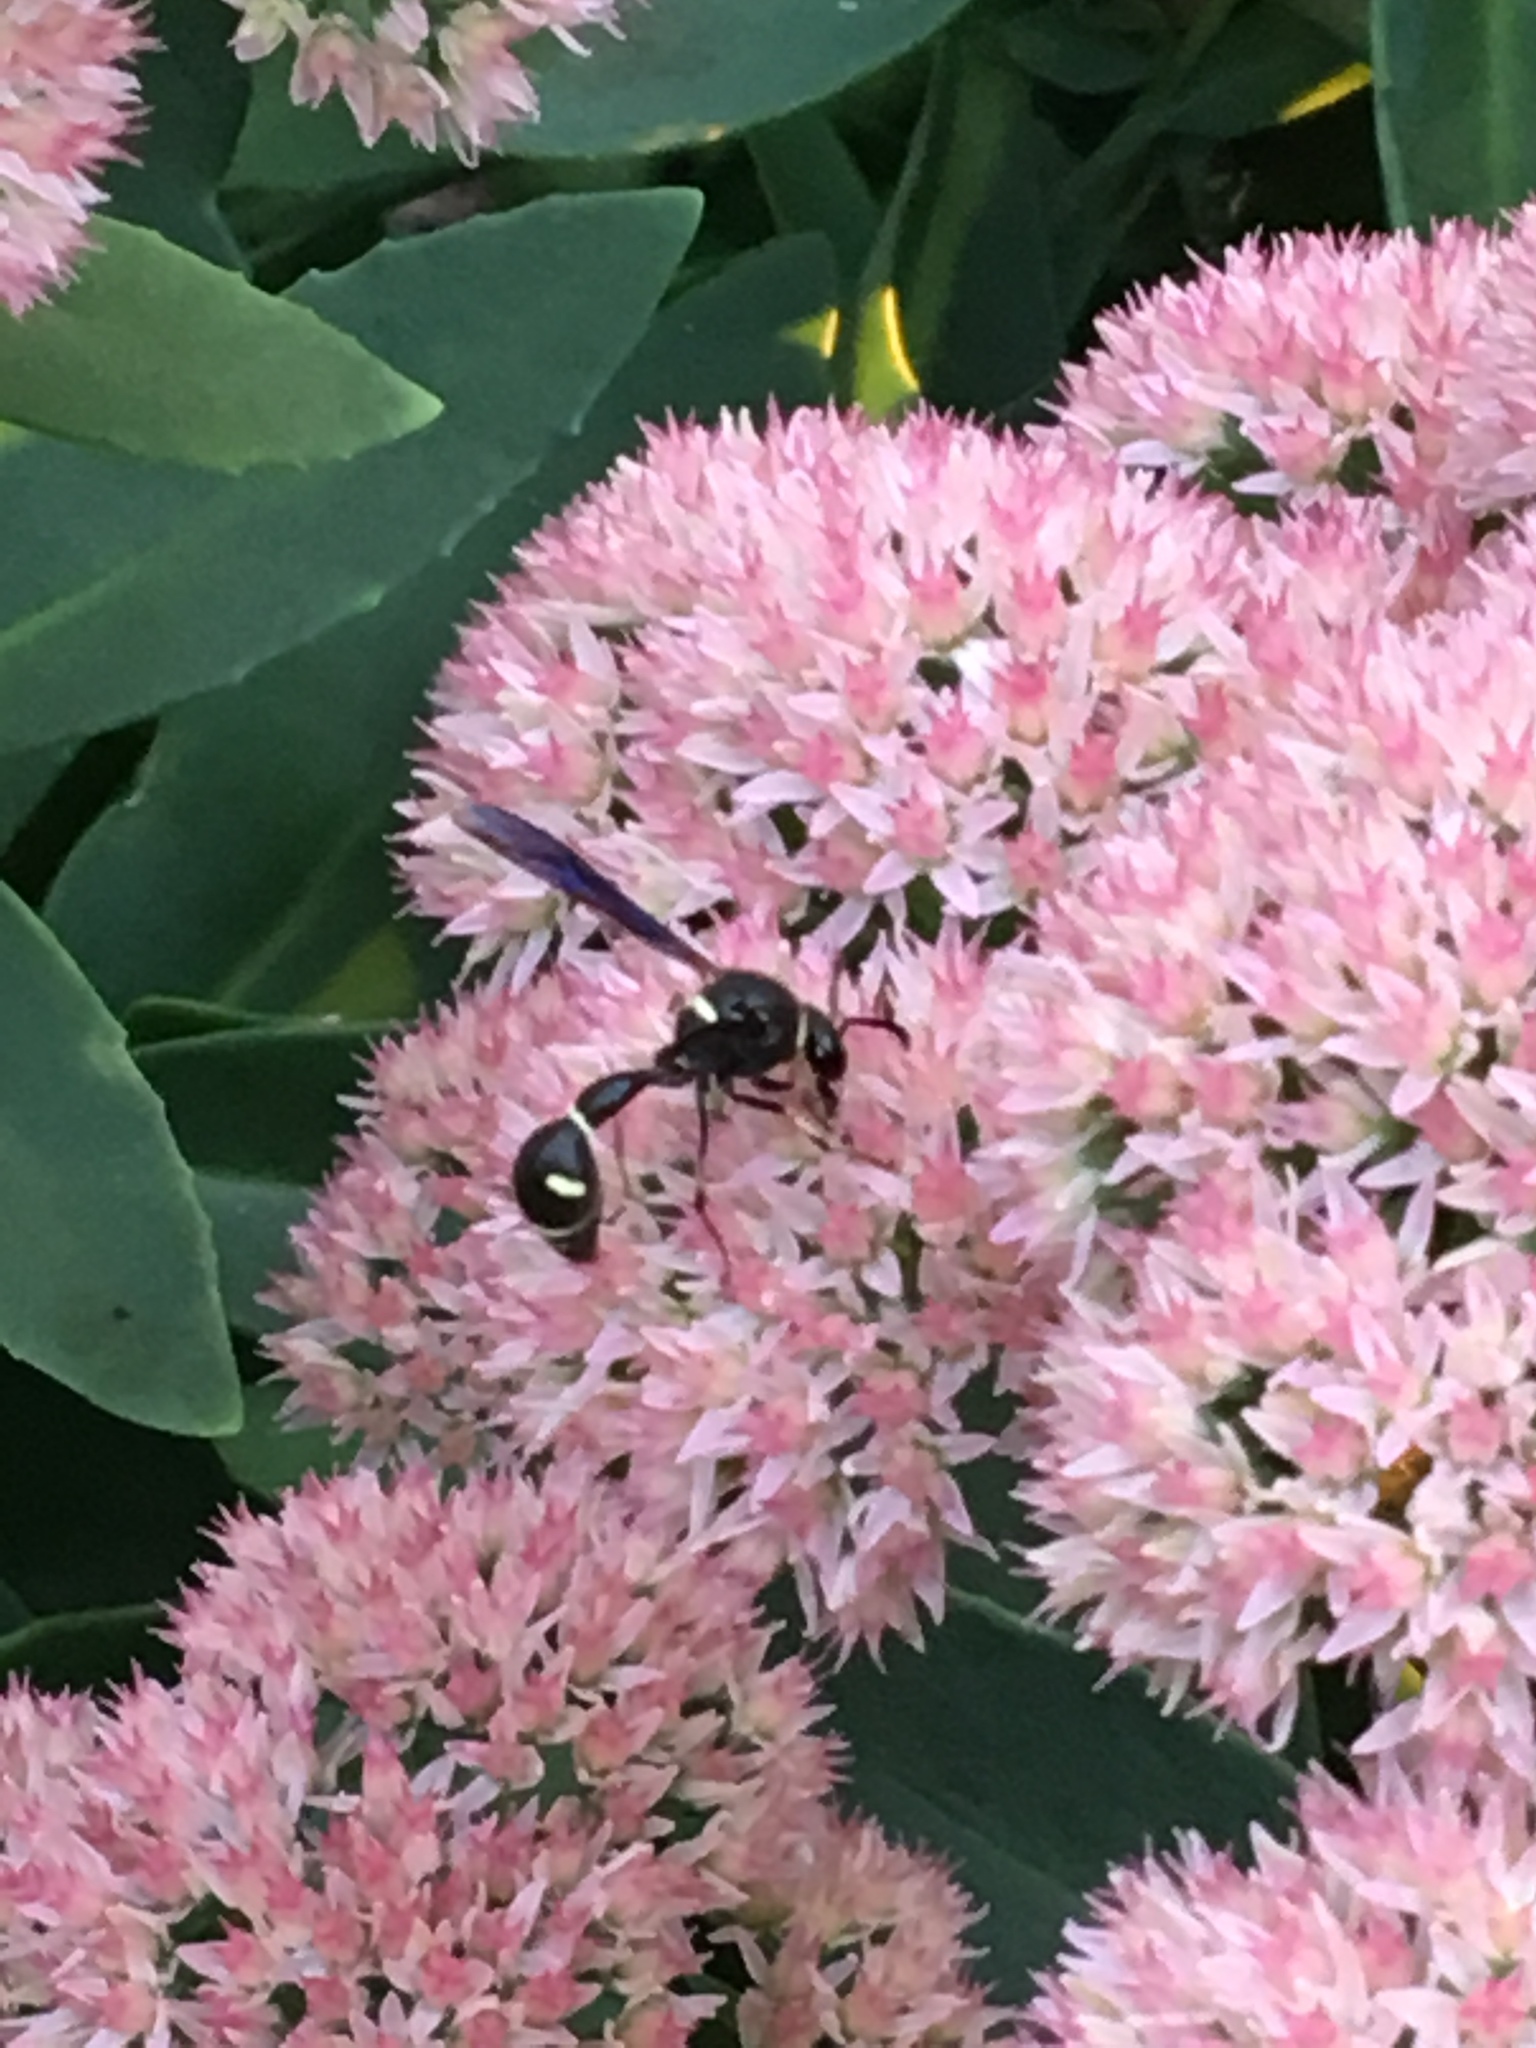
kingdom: Animalia
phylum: Arthropoda
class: Insecta
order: Hymenoptera
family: Vespidae
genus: Eumenes
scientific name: Eumenes fraternus
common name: Fraternal potter wasp
